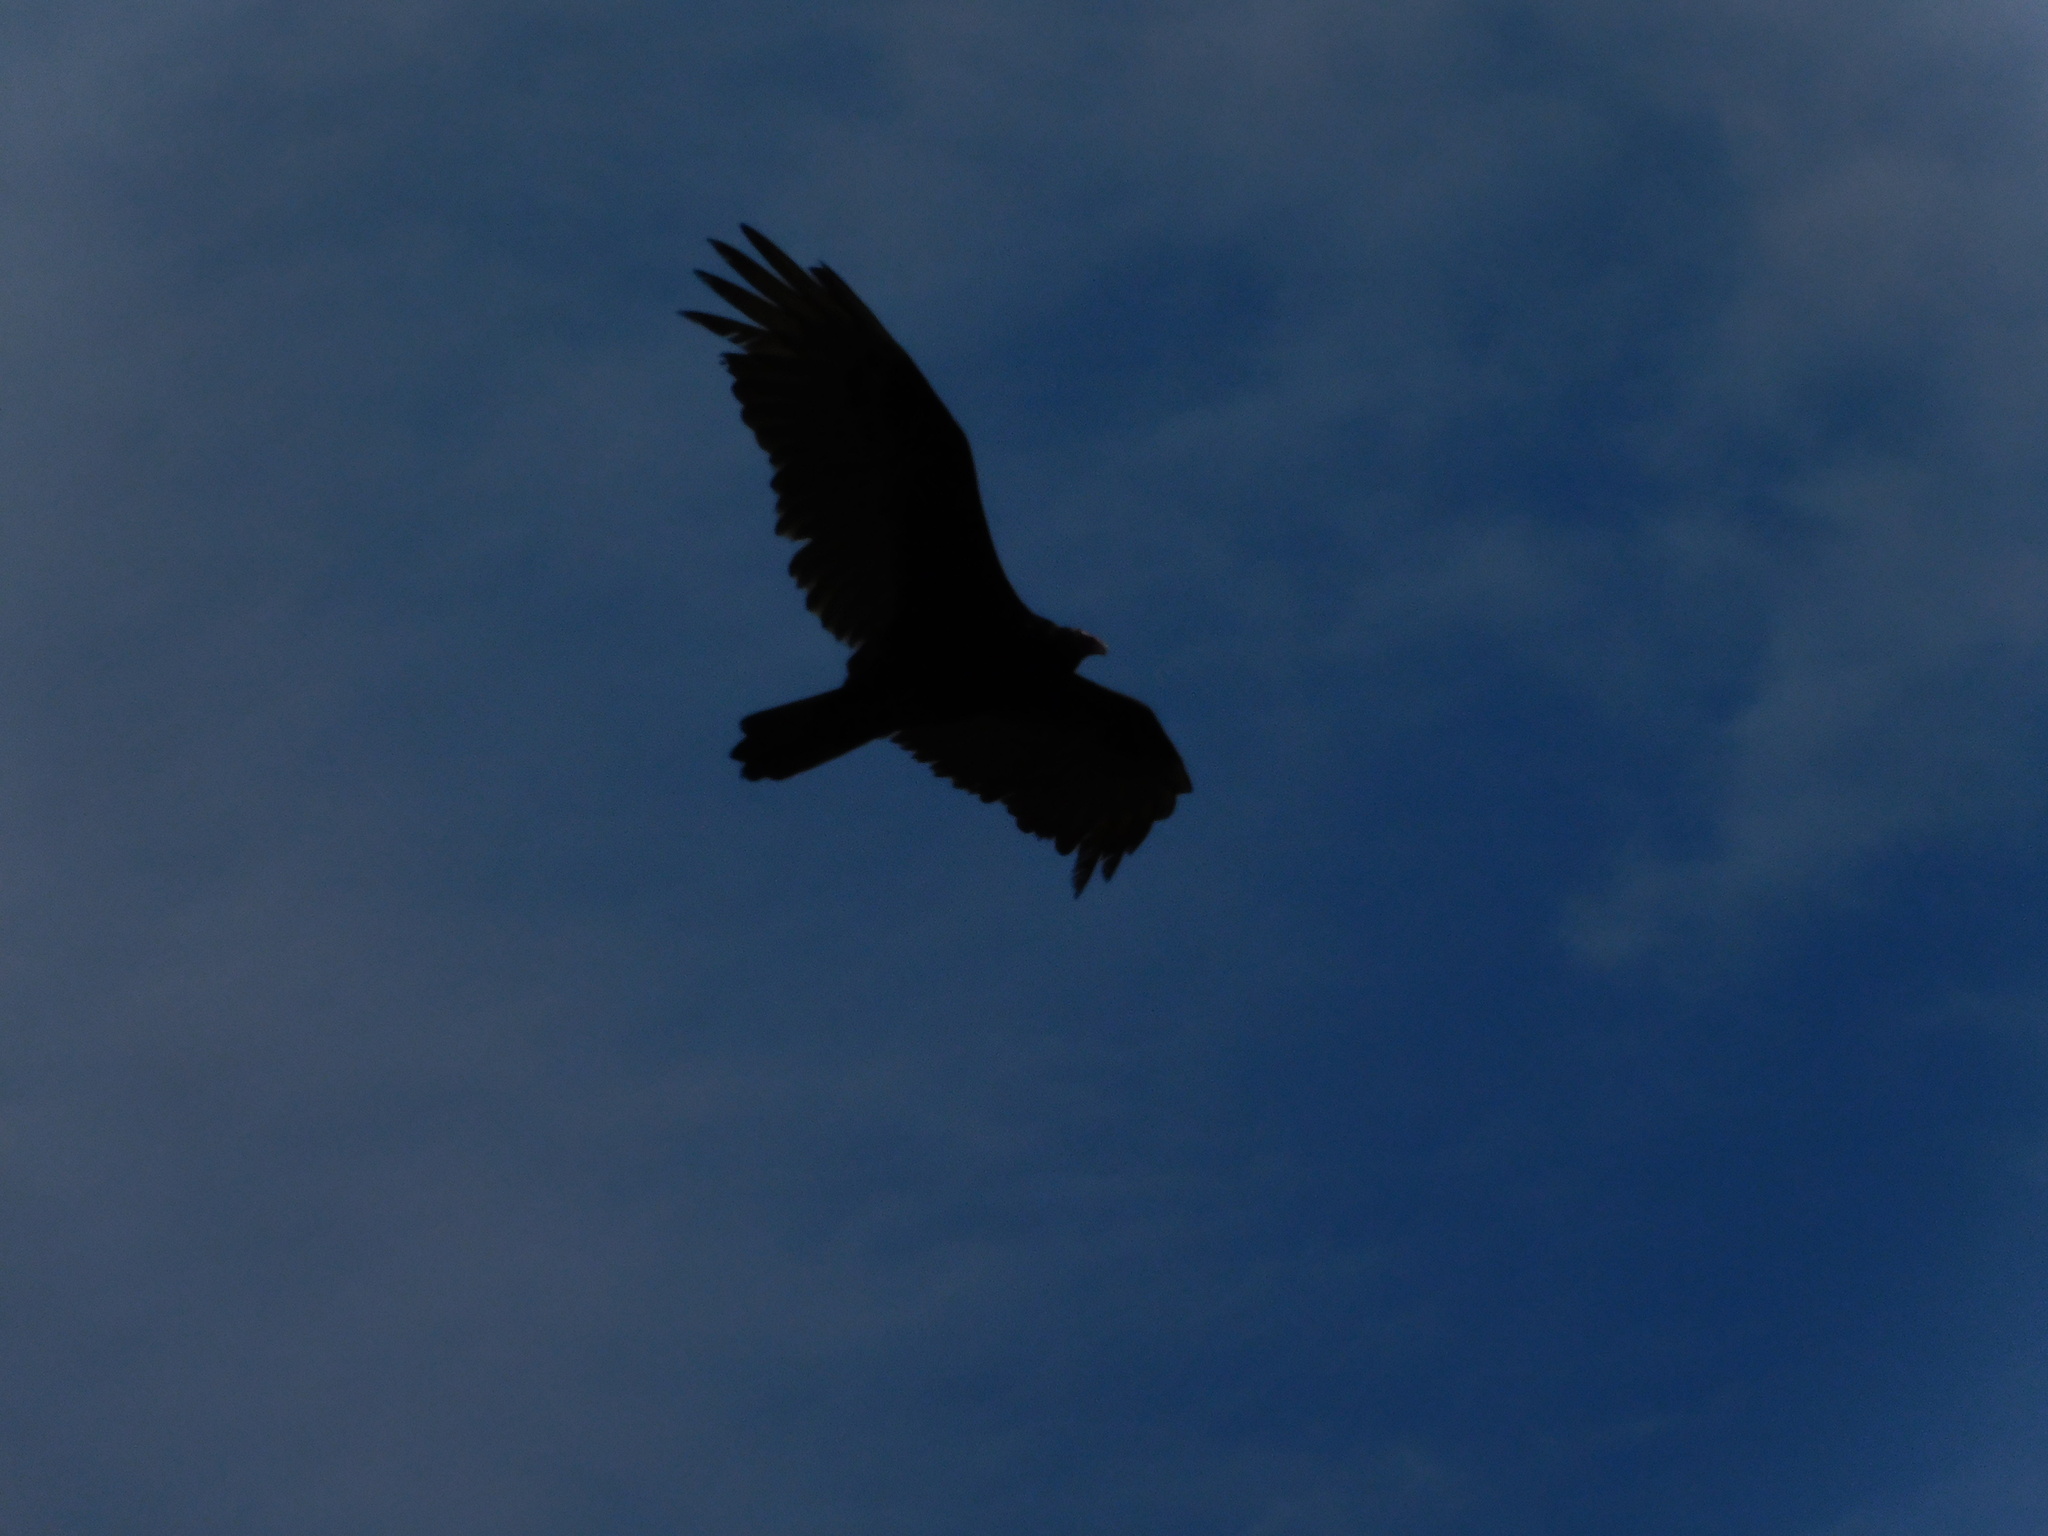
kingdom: Animalia
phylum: Chordata
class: Aves
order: Accipitriformes
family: Cathartidae
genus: Cathartes
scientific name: Cathartes aura
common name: Turkey vulture
